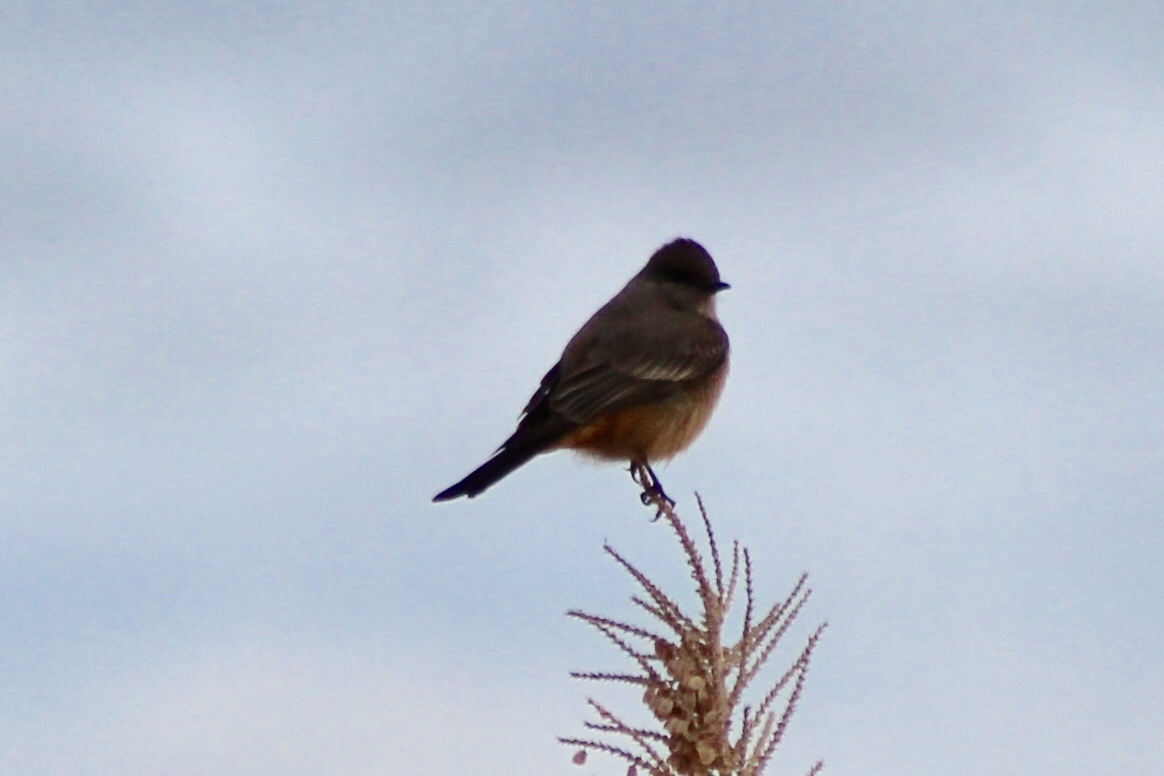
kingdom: Animalia
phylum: Chordata
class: Aves
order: Passeriformes
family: Tyrannidae
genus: Sayornis
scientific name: Sayornis saya
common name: Say's phoebe
